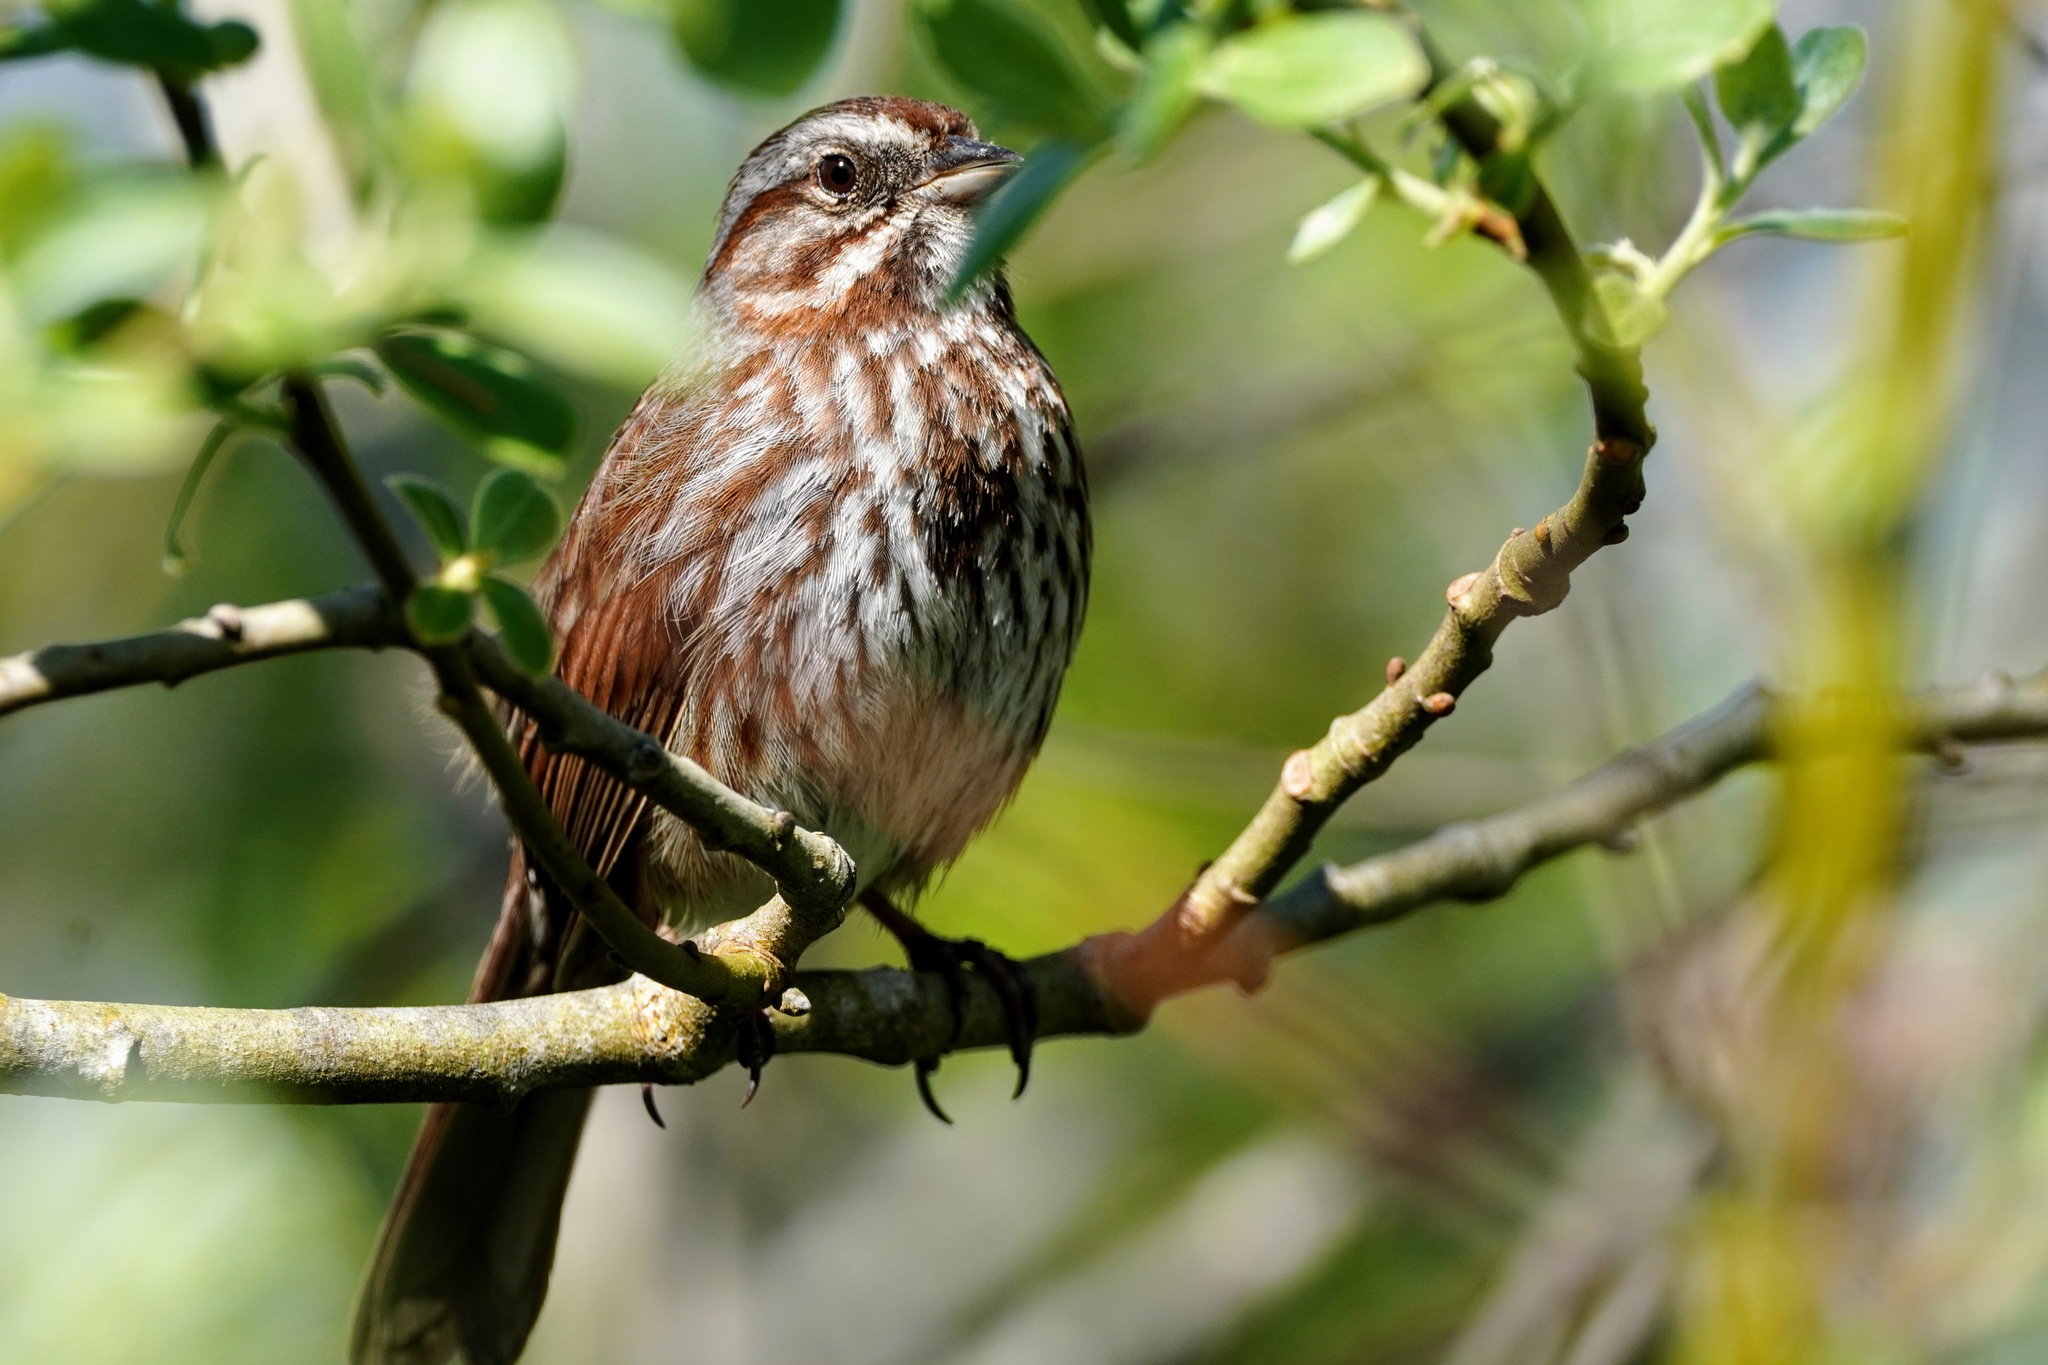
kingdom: Animalia
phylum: Chordata
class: Aves
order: Passeriformes
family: Passerellidae
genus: Melospiza
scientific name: Melospiza melodia
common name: Song sparrow
